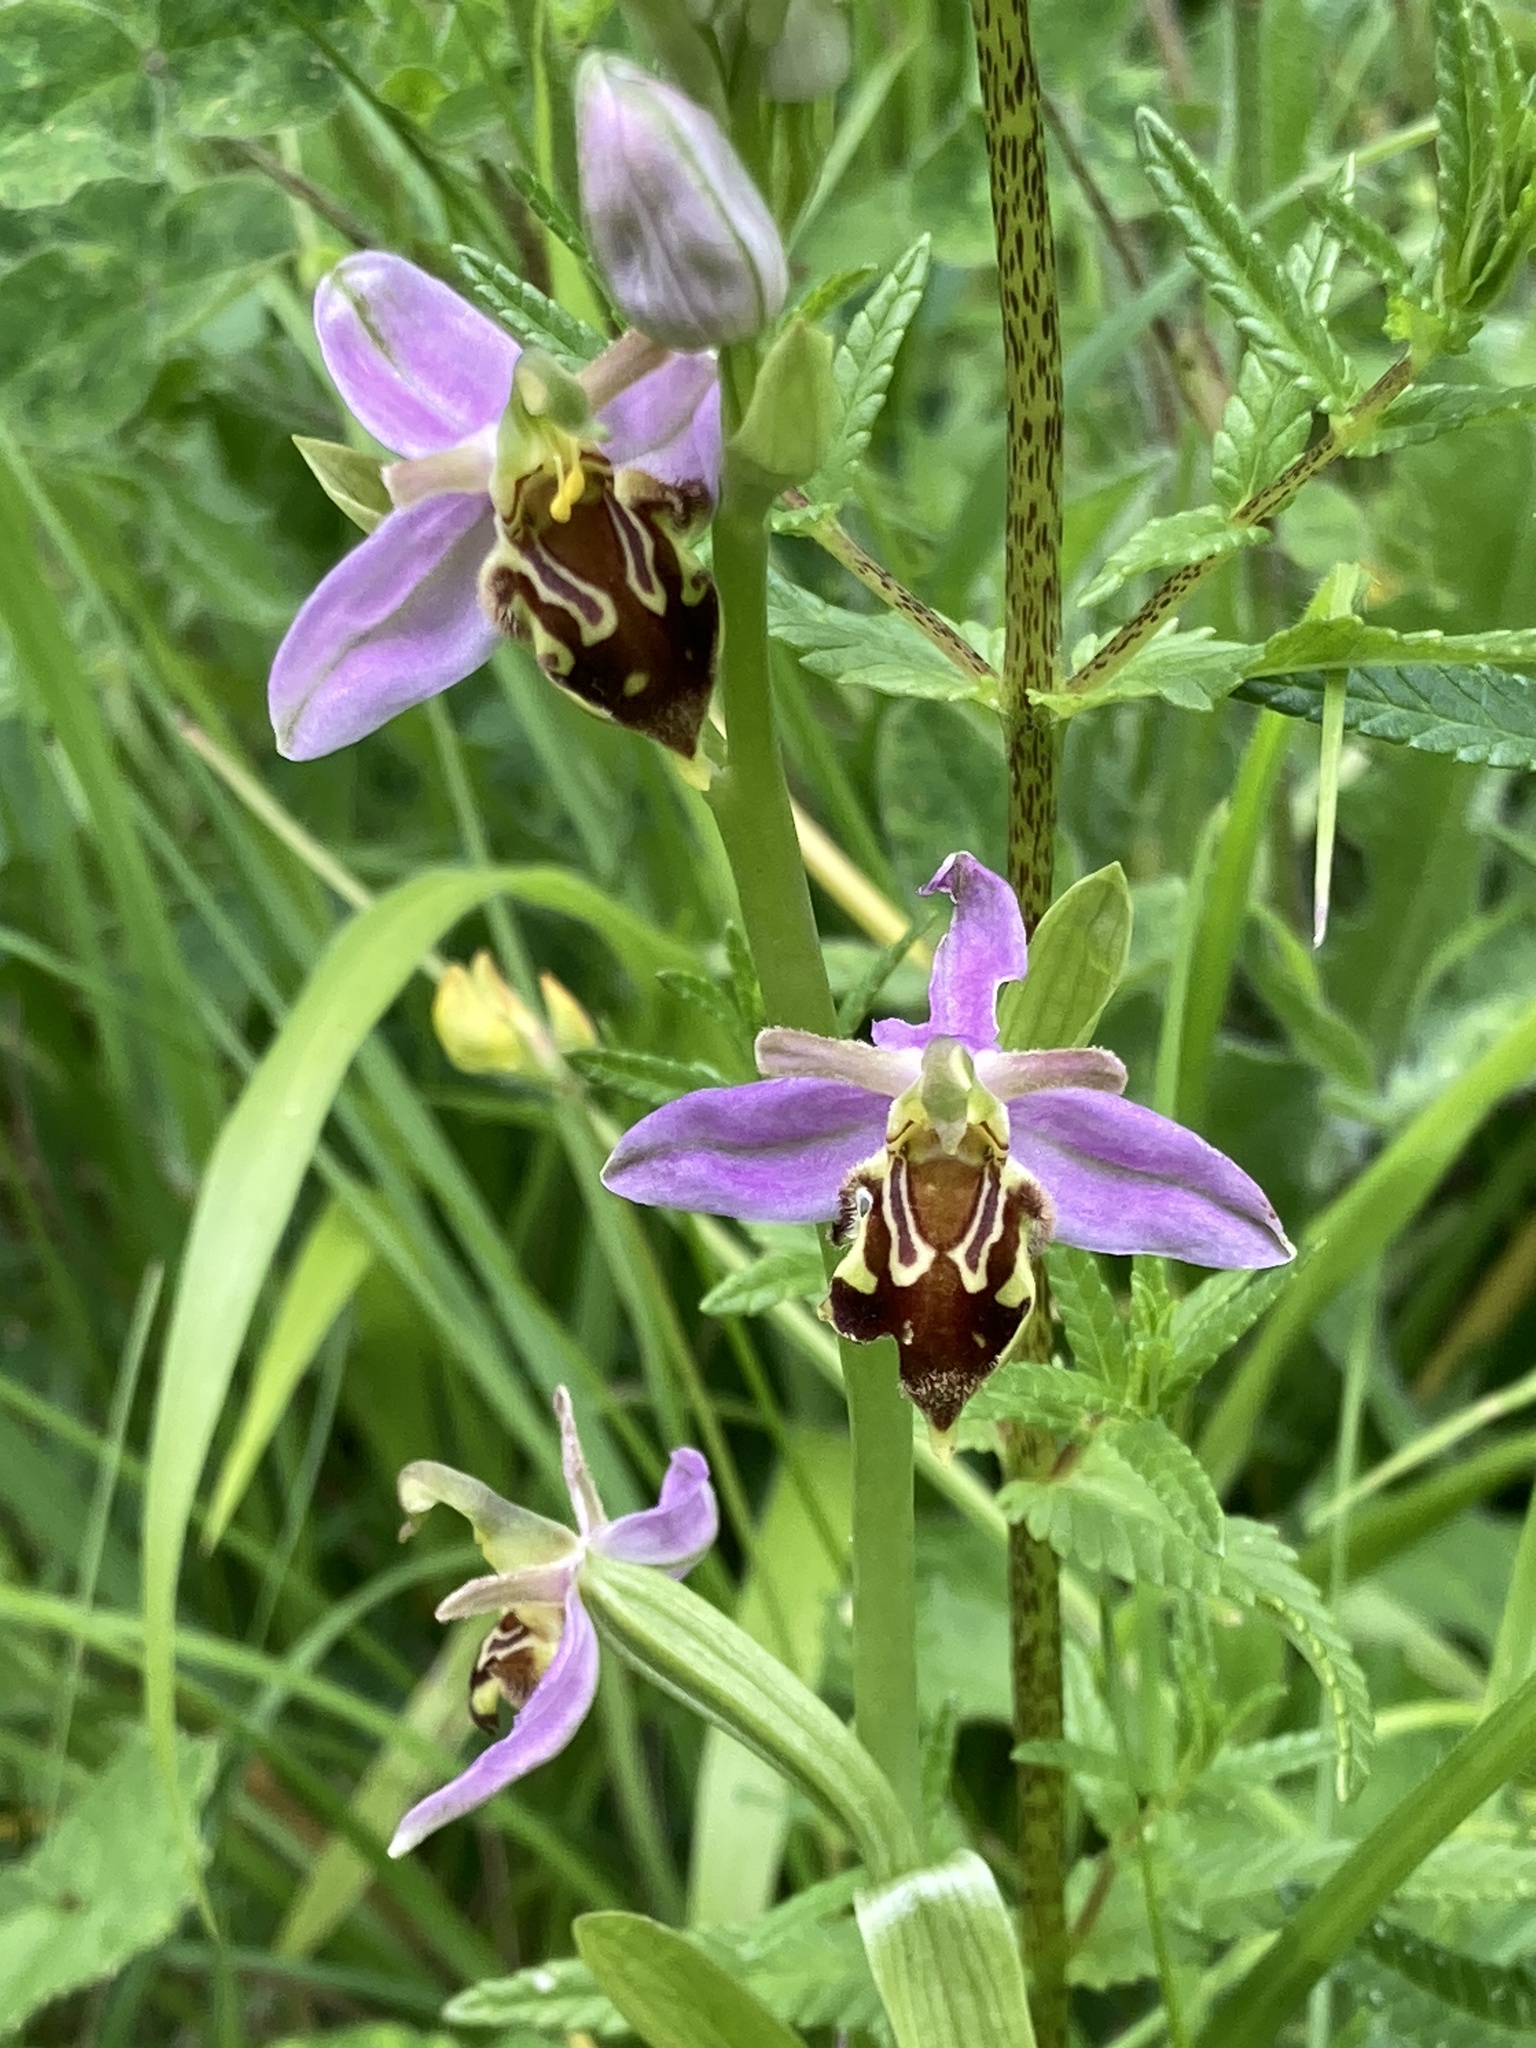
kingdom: Plantae
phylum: Tracheophyta
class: Liliopsida
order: Asparagales
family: Orchidaceae
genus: Ophrys
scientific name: Ophrys apifera
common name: Bee orchid
